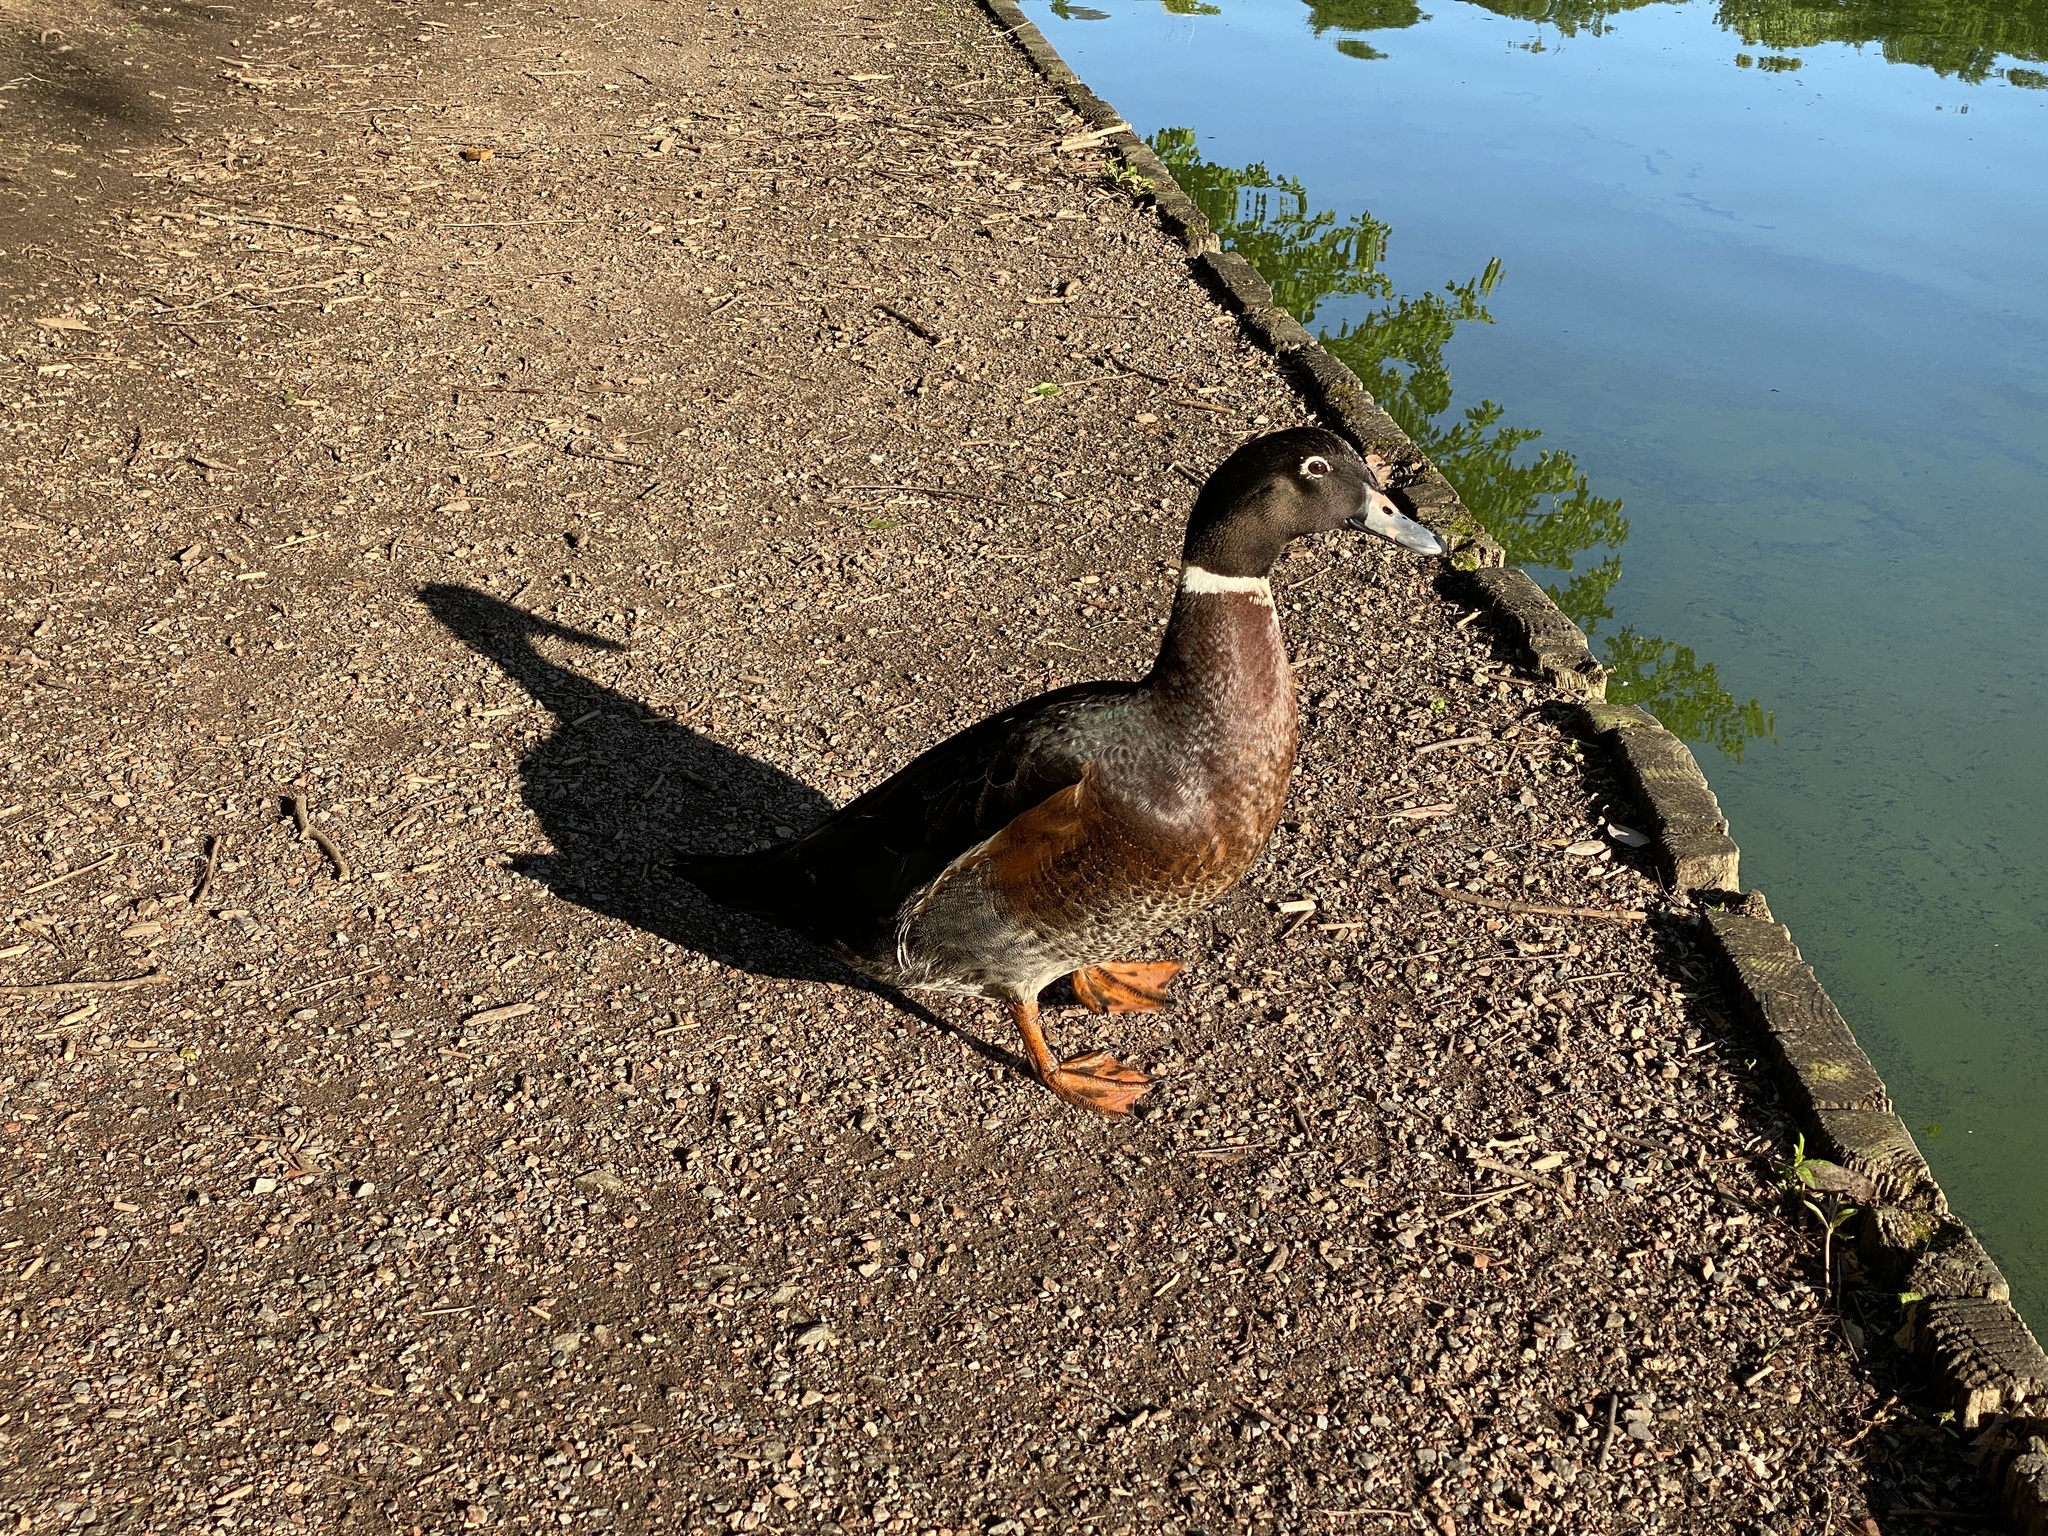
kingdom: Animalia
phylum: Chordata
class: Aves
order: Anseriformes
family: Anatidae
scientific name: Anatidae
